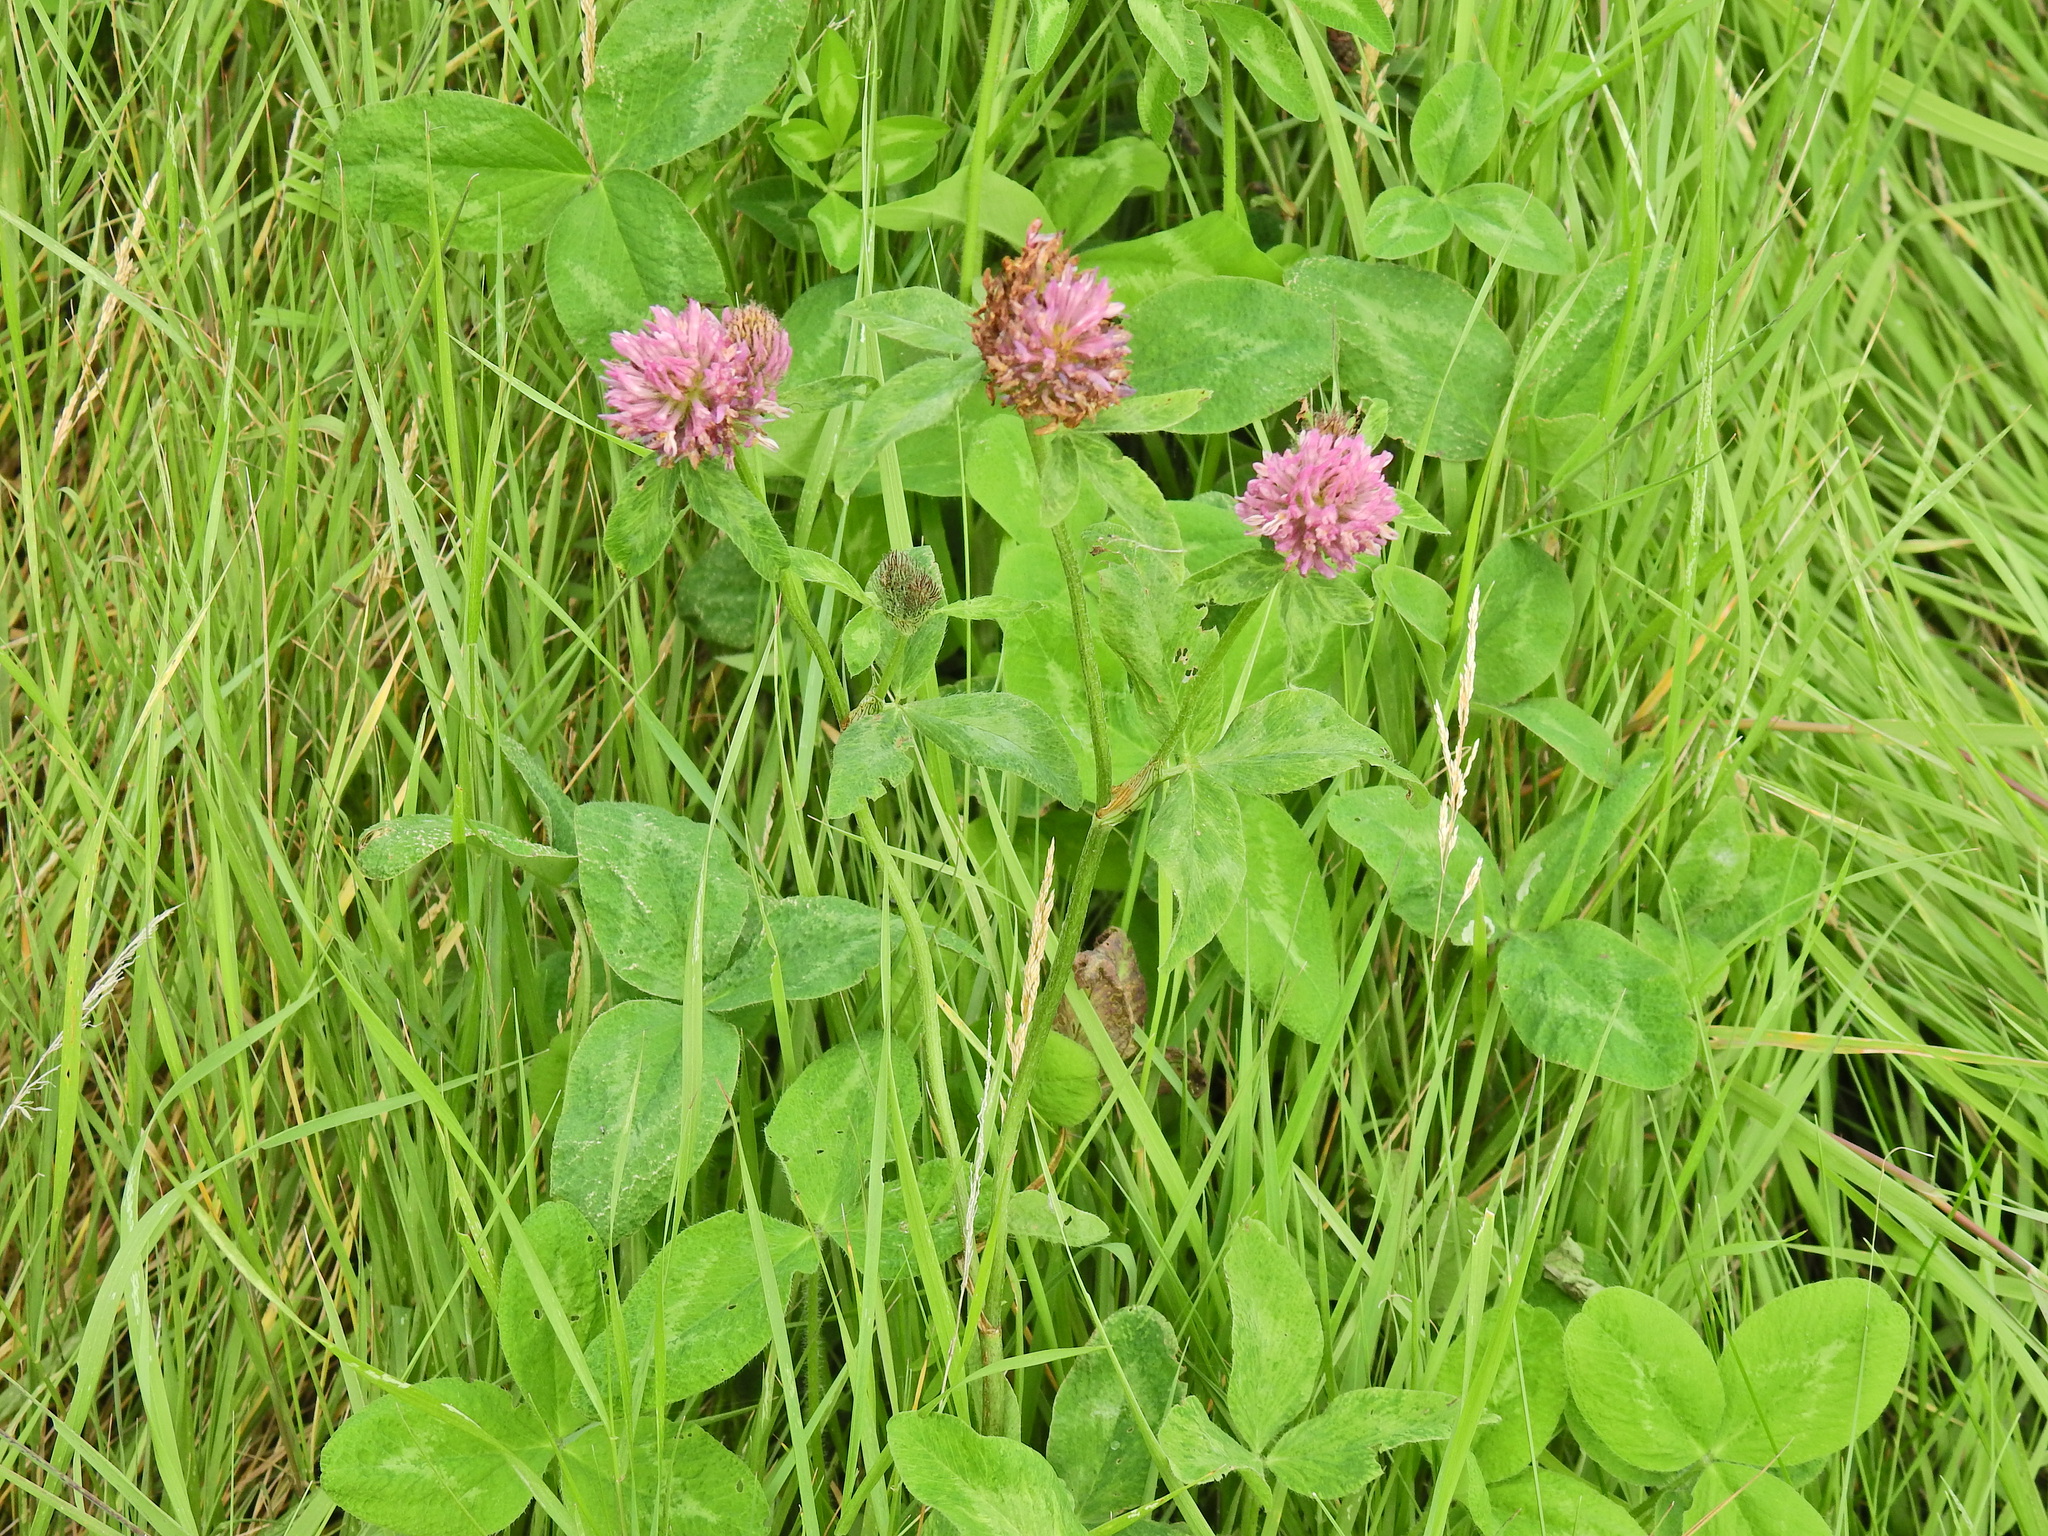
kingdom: Plantae
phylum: Tracheophyta
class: Magnoliopsida
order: Fabales
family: Fabaceae
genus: Trifolium
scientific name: Trifolium pratense
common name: Red clover
